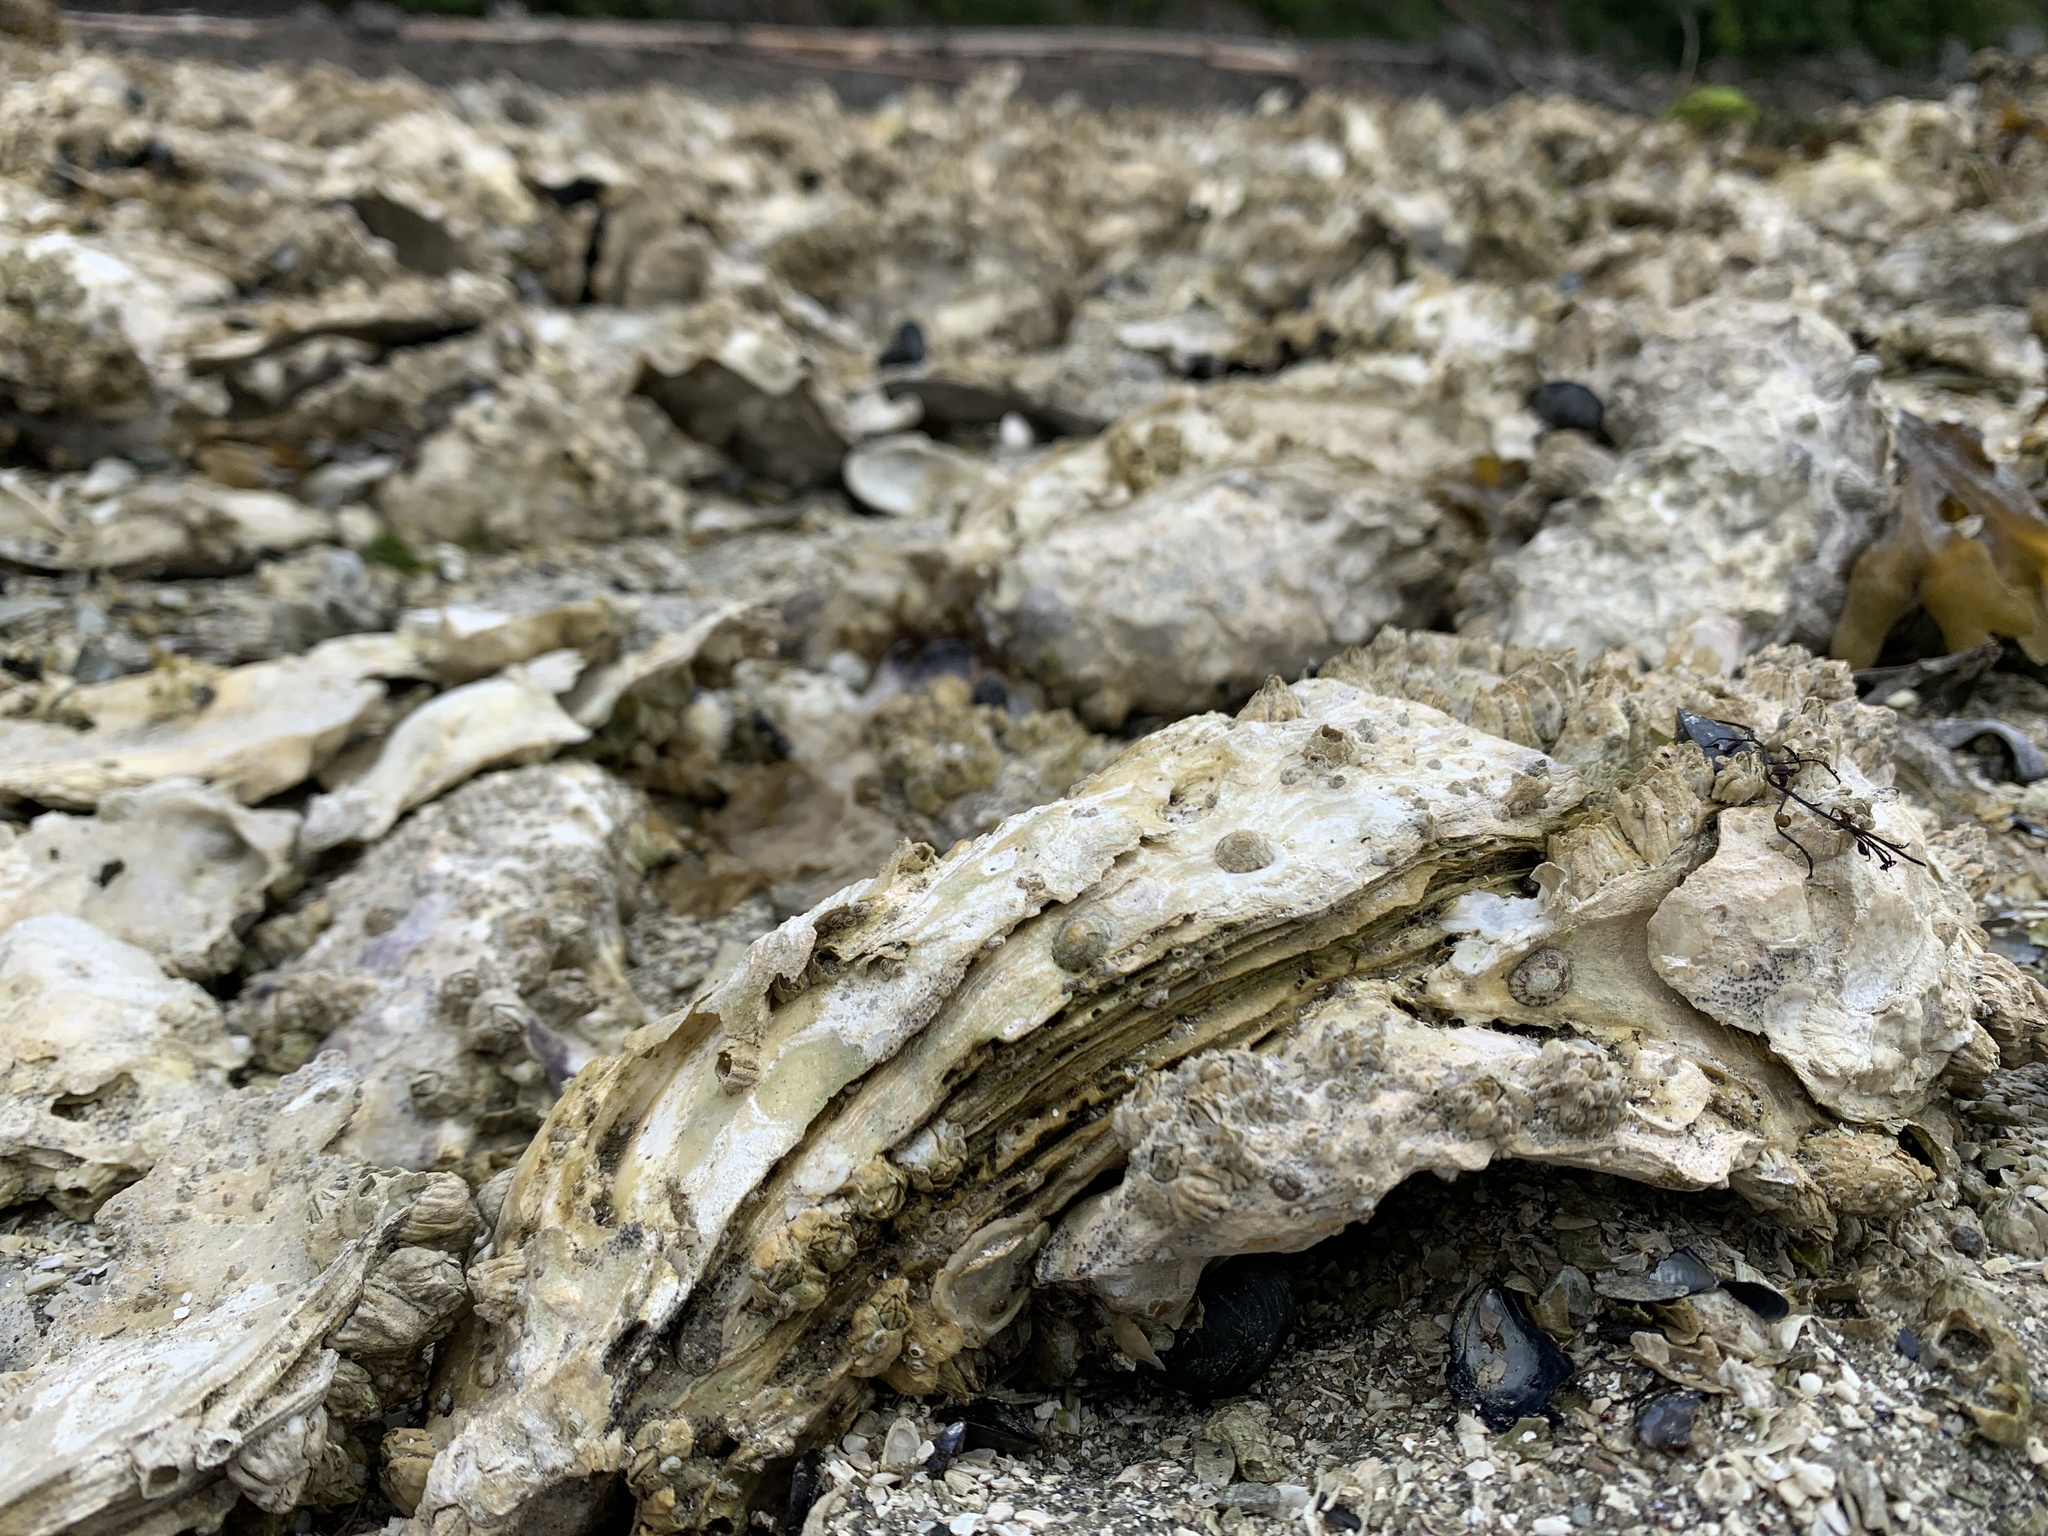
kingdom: Animalia
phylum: Mollusca
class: Bivalvia
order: Ostreida
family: Ostreidae
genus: Magallana
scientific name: Magallana gigas
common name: Pacific oyster
